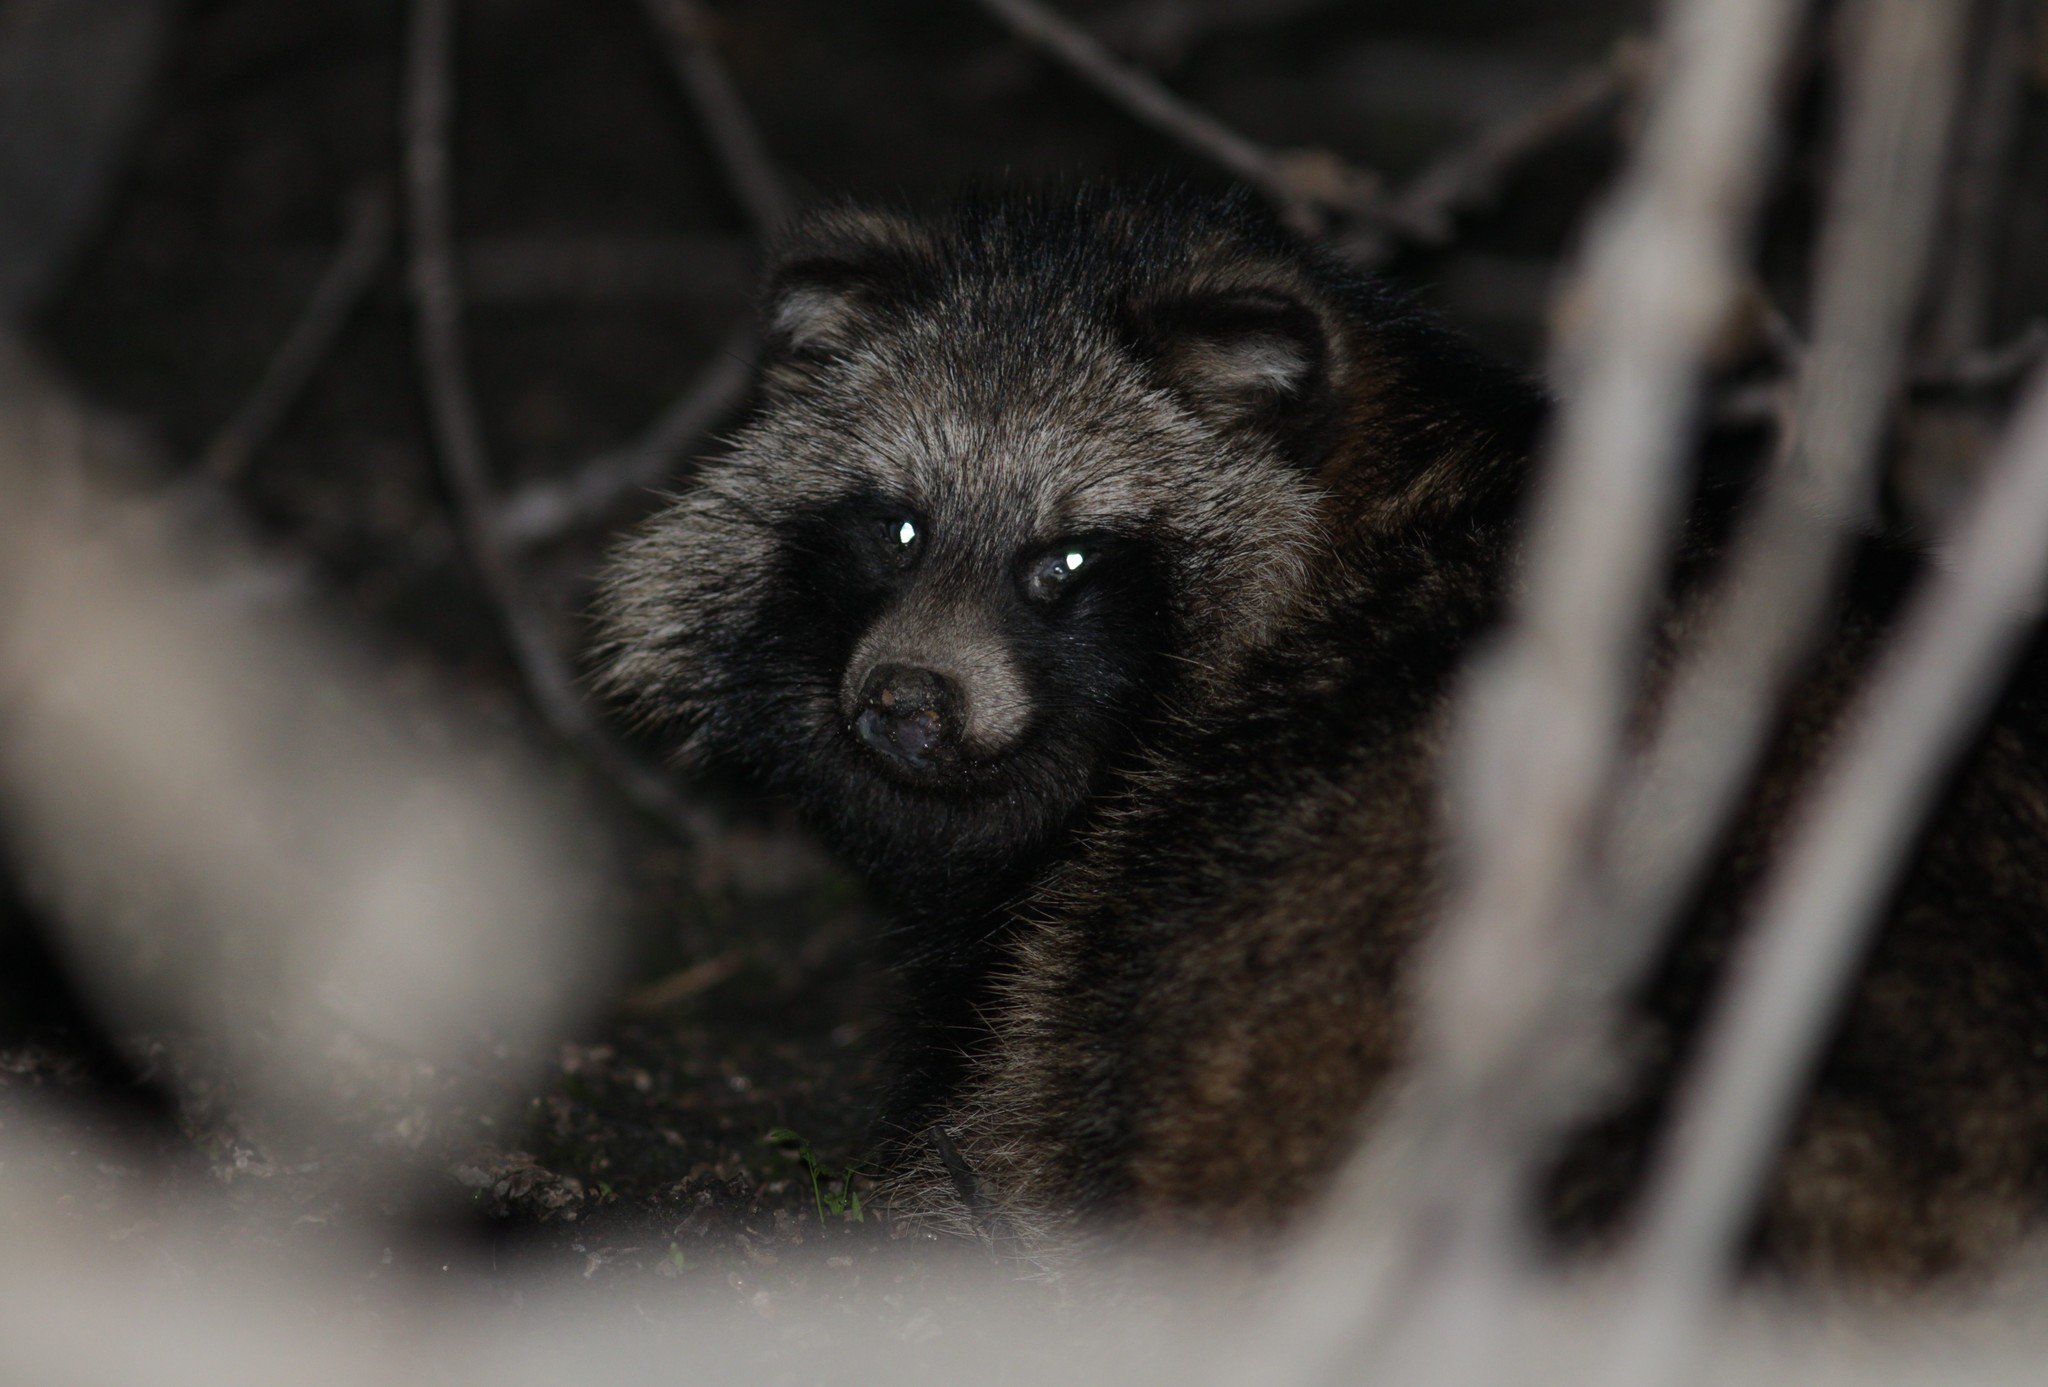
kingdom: Animalia
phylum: Chordata
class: Mammalia
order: Carnivora
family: Canidae
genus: Nyctereutes
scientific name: Nyctereutes procyonoides
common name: Raccoon dog
